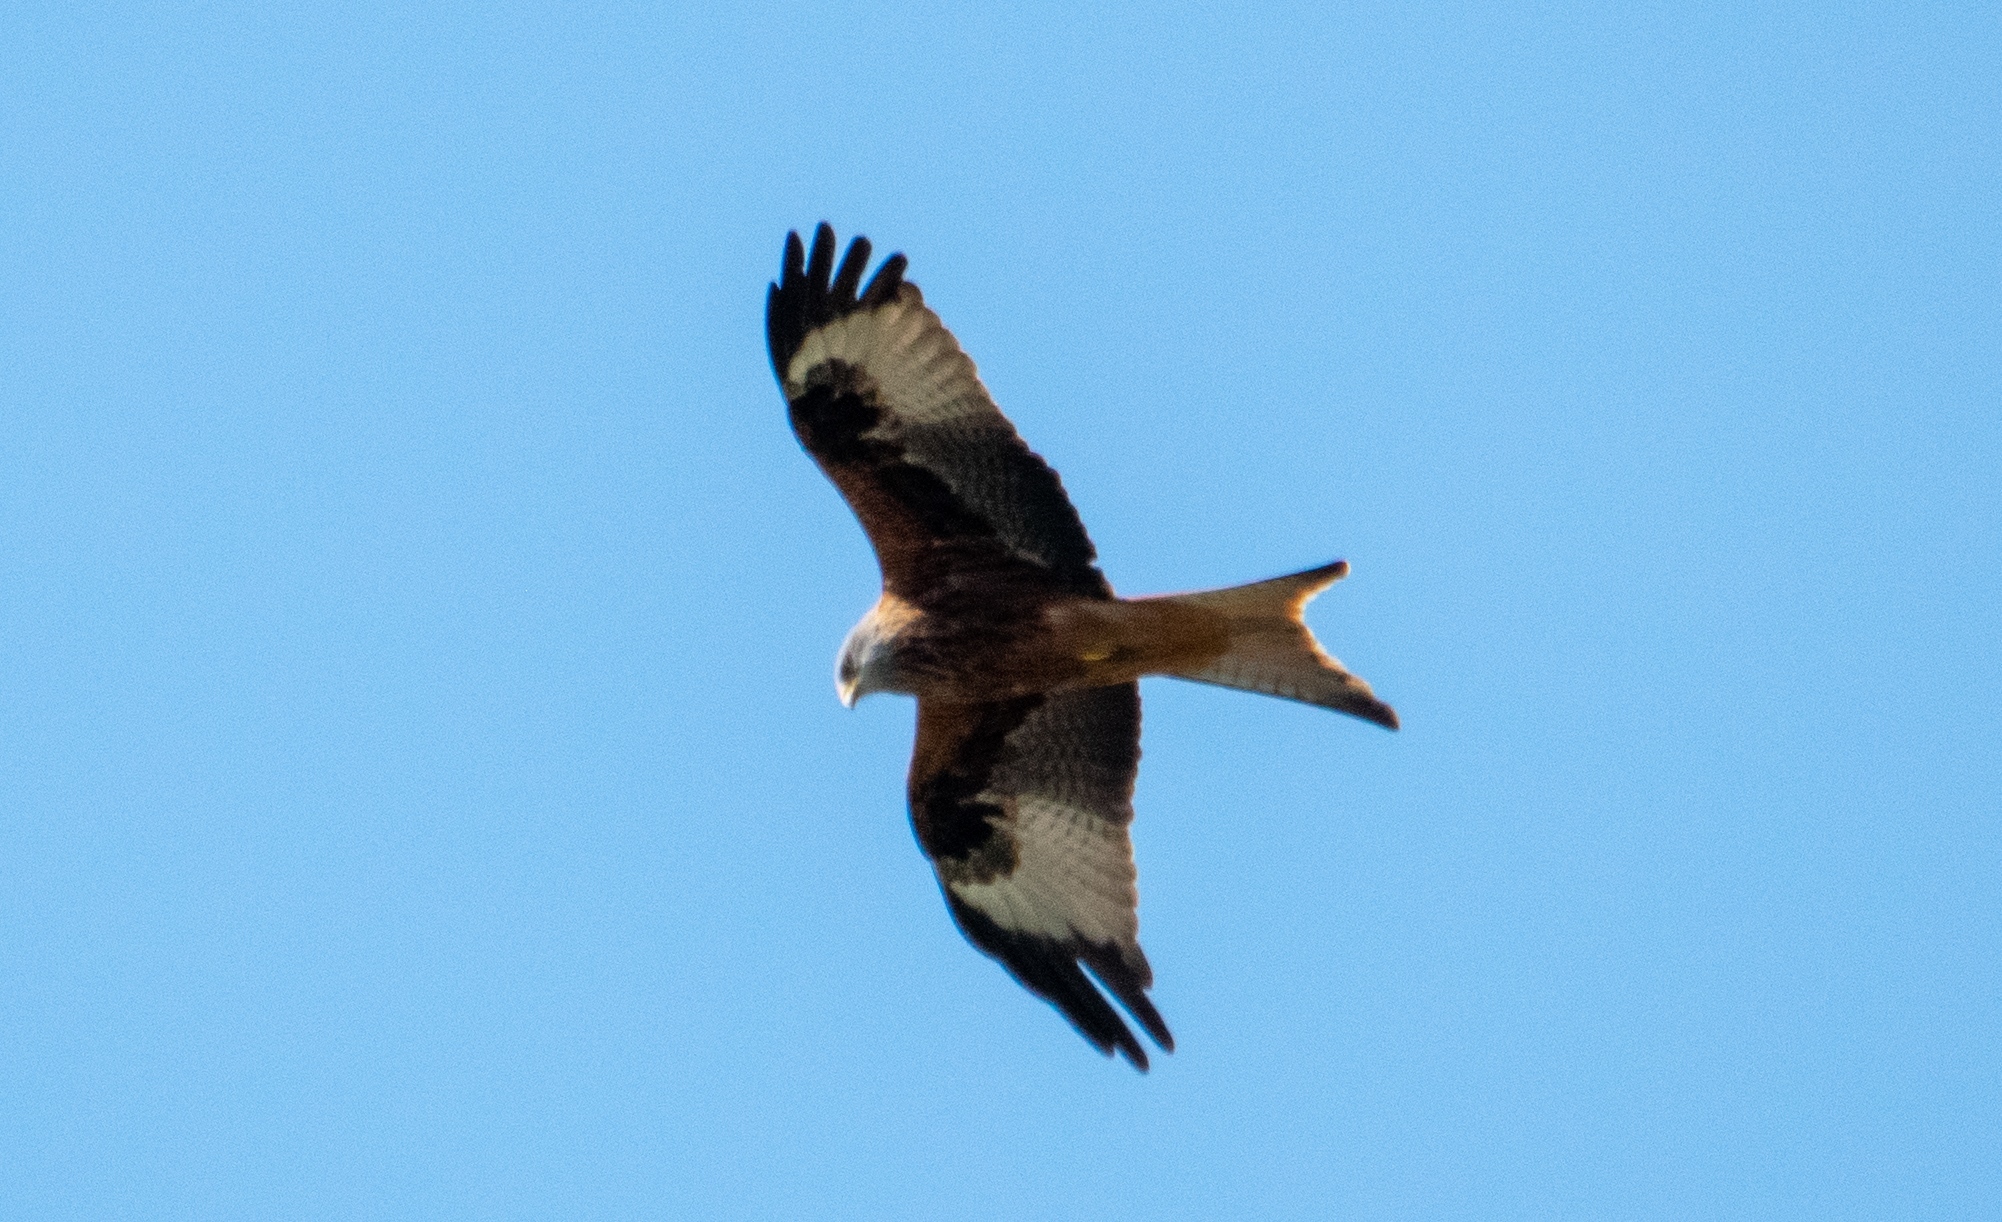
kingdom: Animalia
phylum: Chordata
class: Aves
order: Accipitriformes
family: Accipitridae
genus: Milvus
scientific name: Milvus milvus
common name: Red kite
